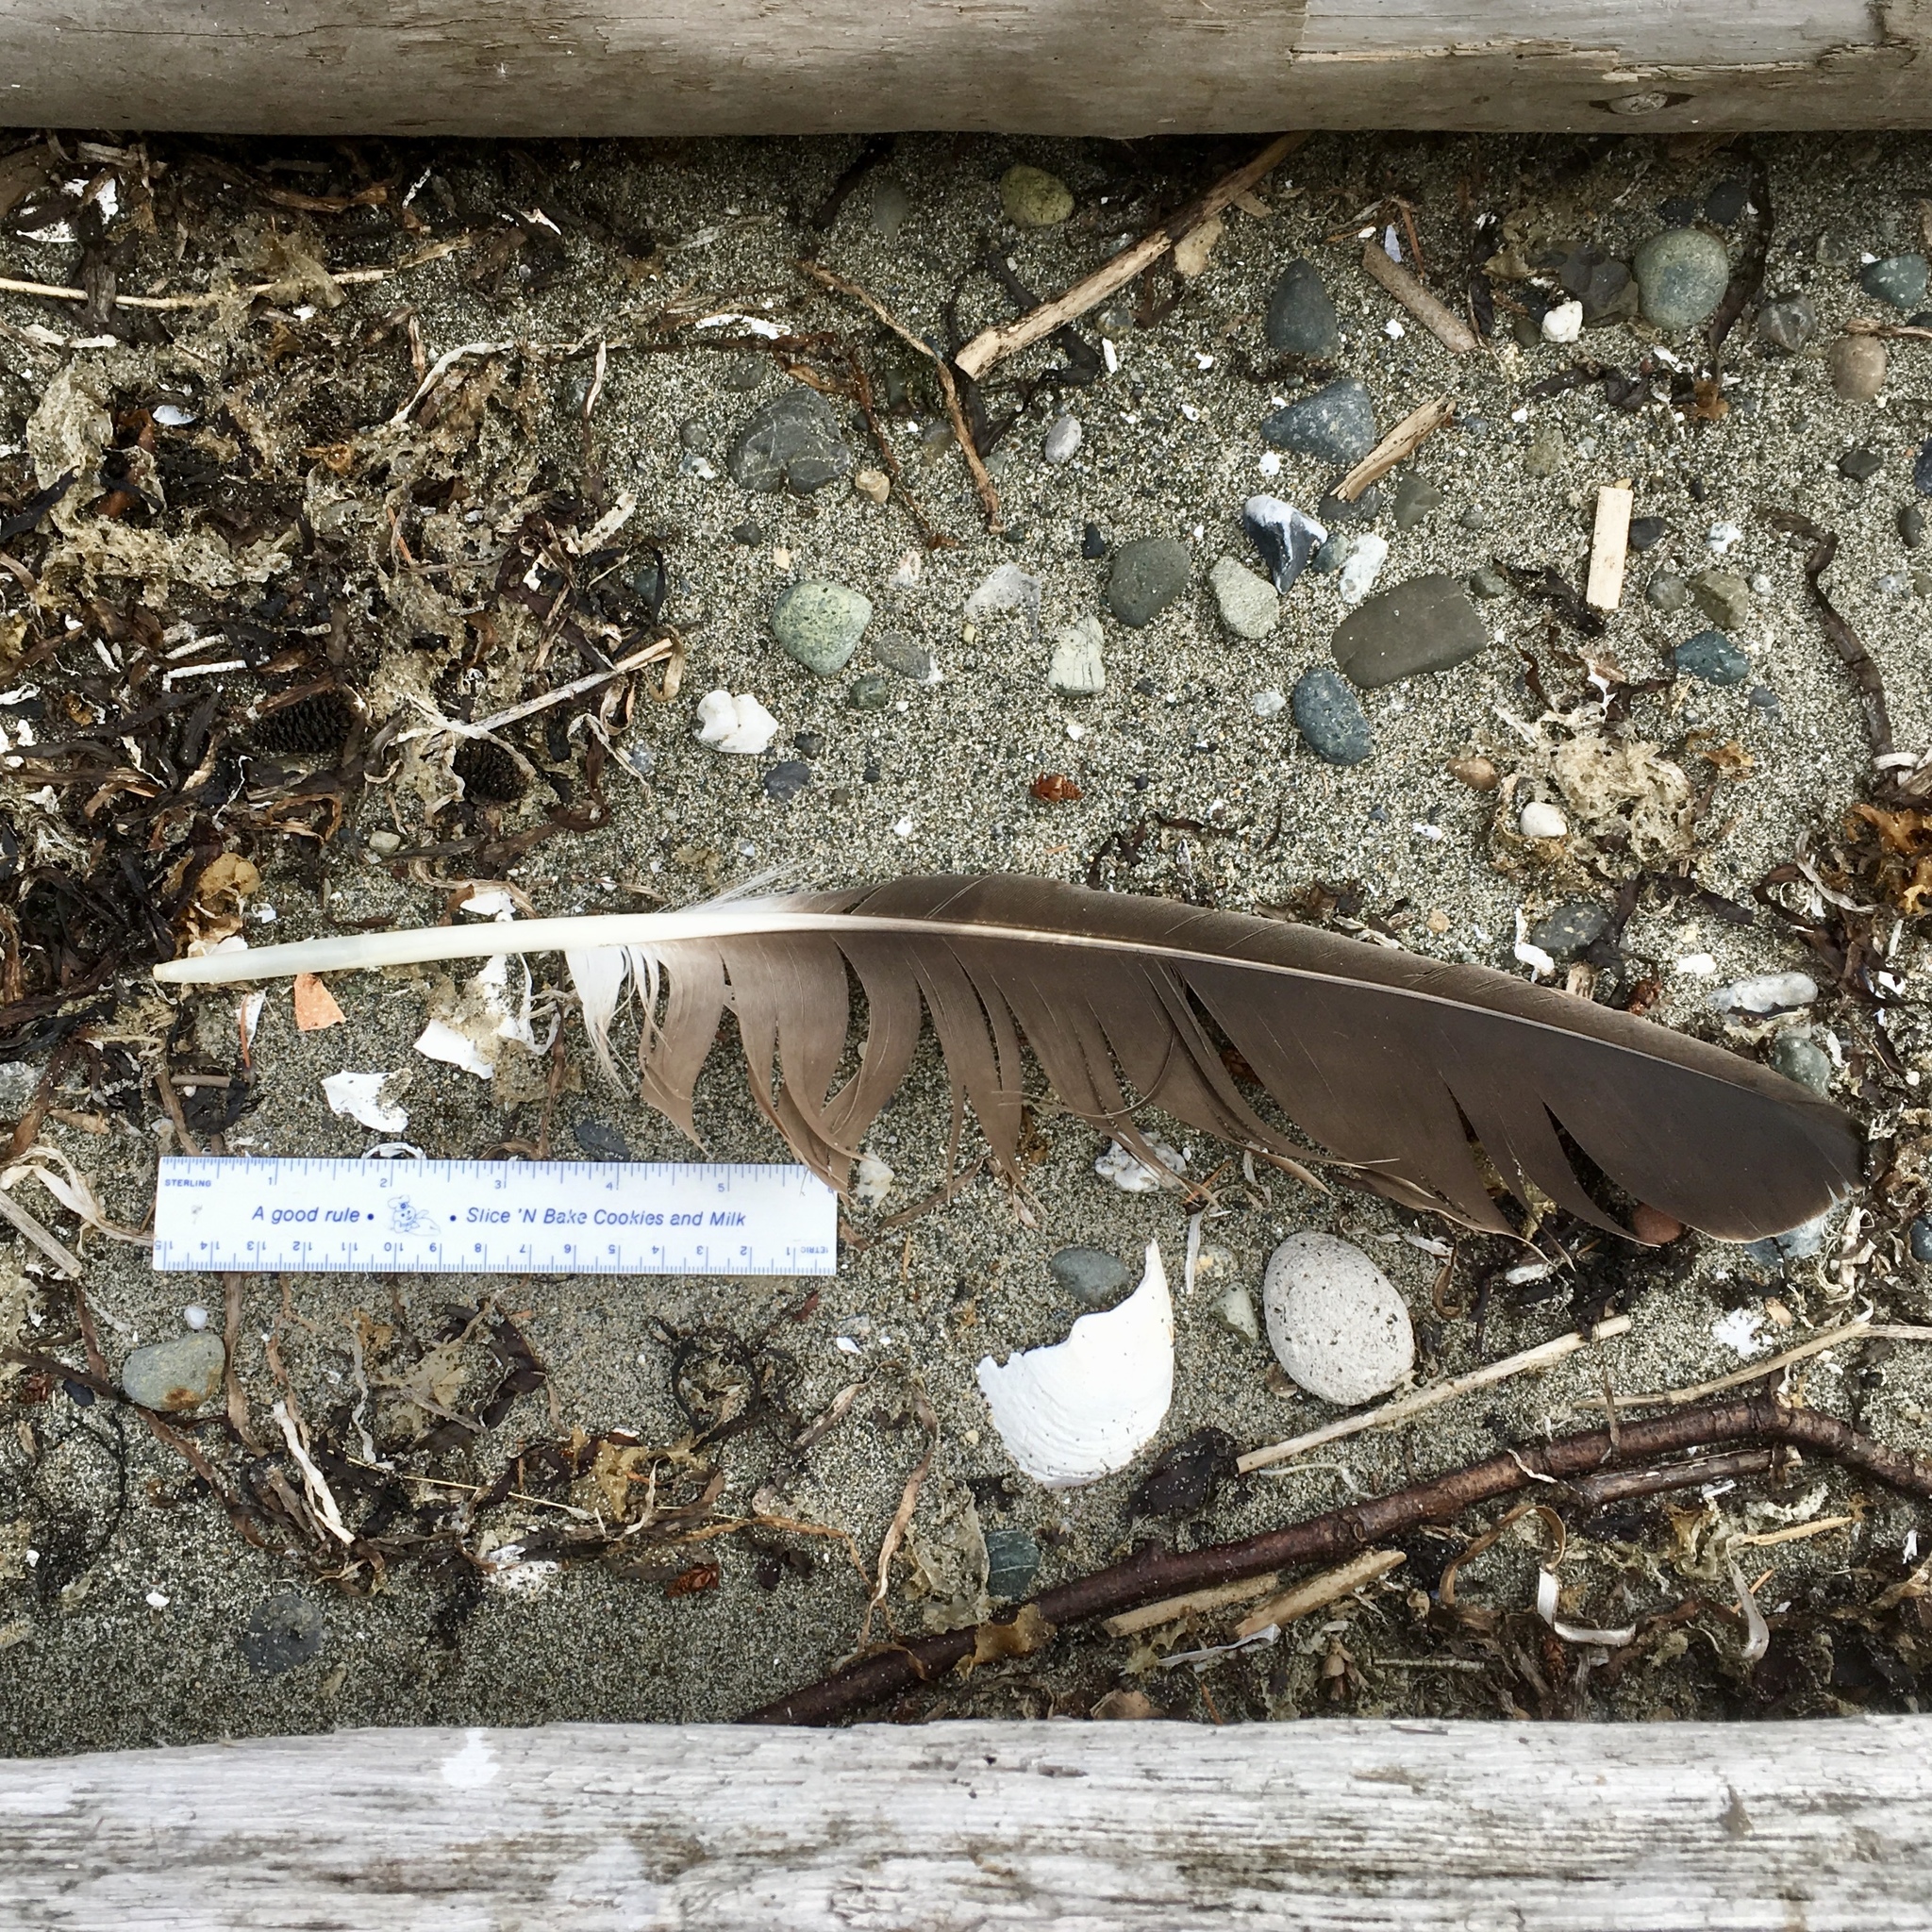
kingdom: Animalia
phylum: Chordata
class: Aves
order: Accipitriformes
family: Accipitridae
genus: Haliaeetus
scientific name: Haliaeetus leucocephalus
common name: Bald eagle
